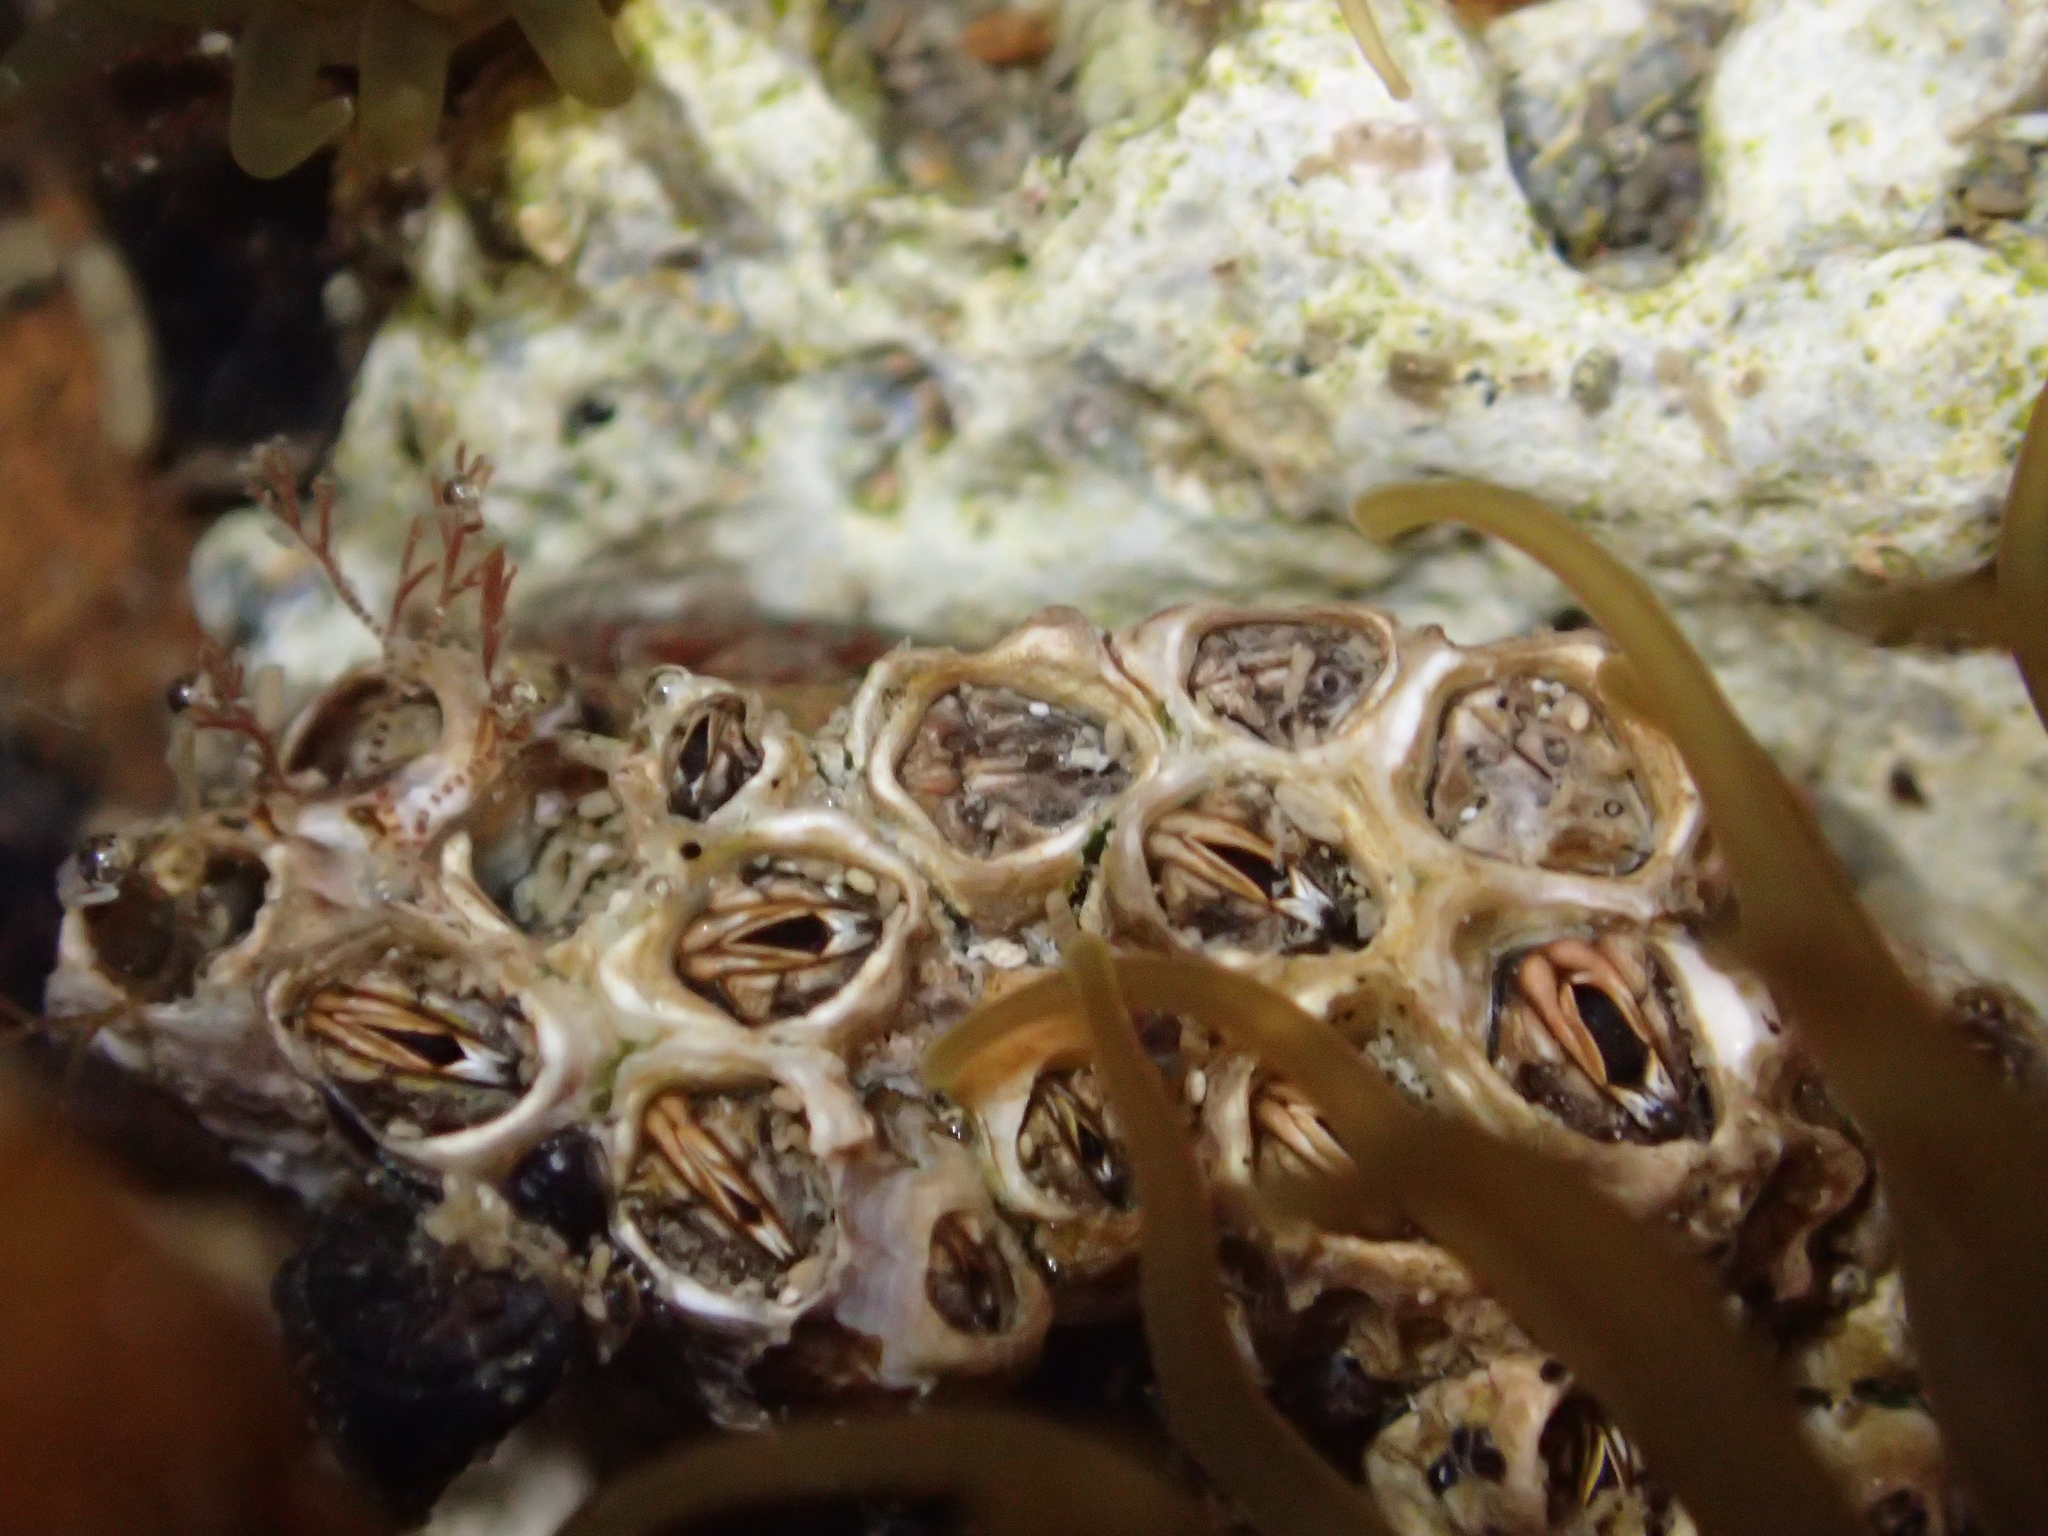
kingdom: Animalia
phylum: Arthropoda
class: Maxillopoda
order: Sessilia
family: Chthamalidae
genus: Chamaesipho
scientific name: Chamaesipho columna
